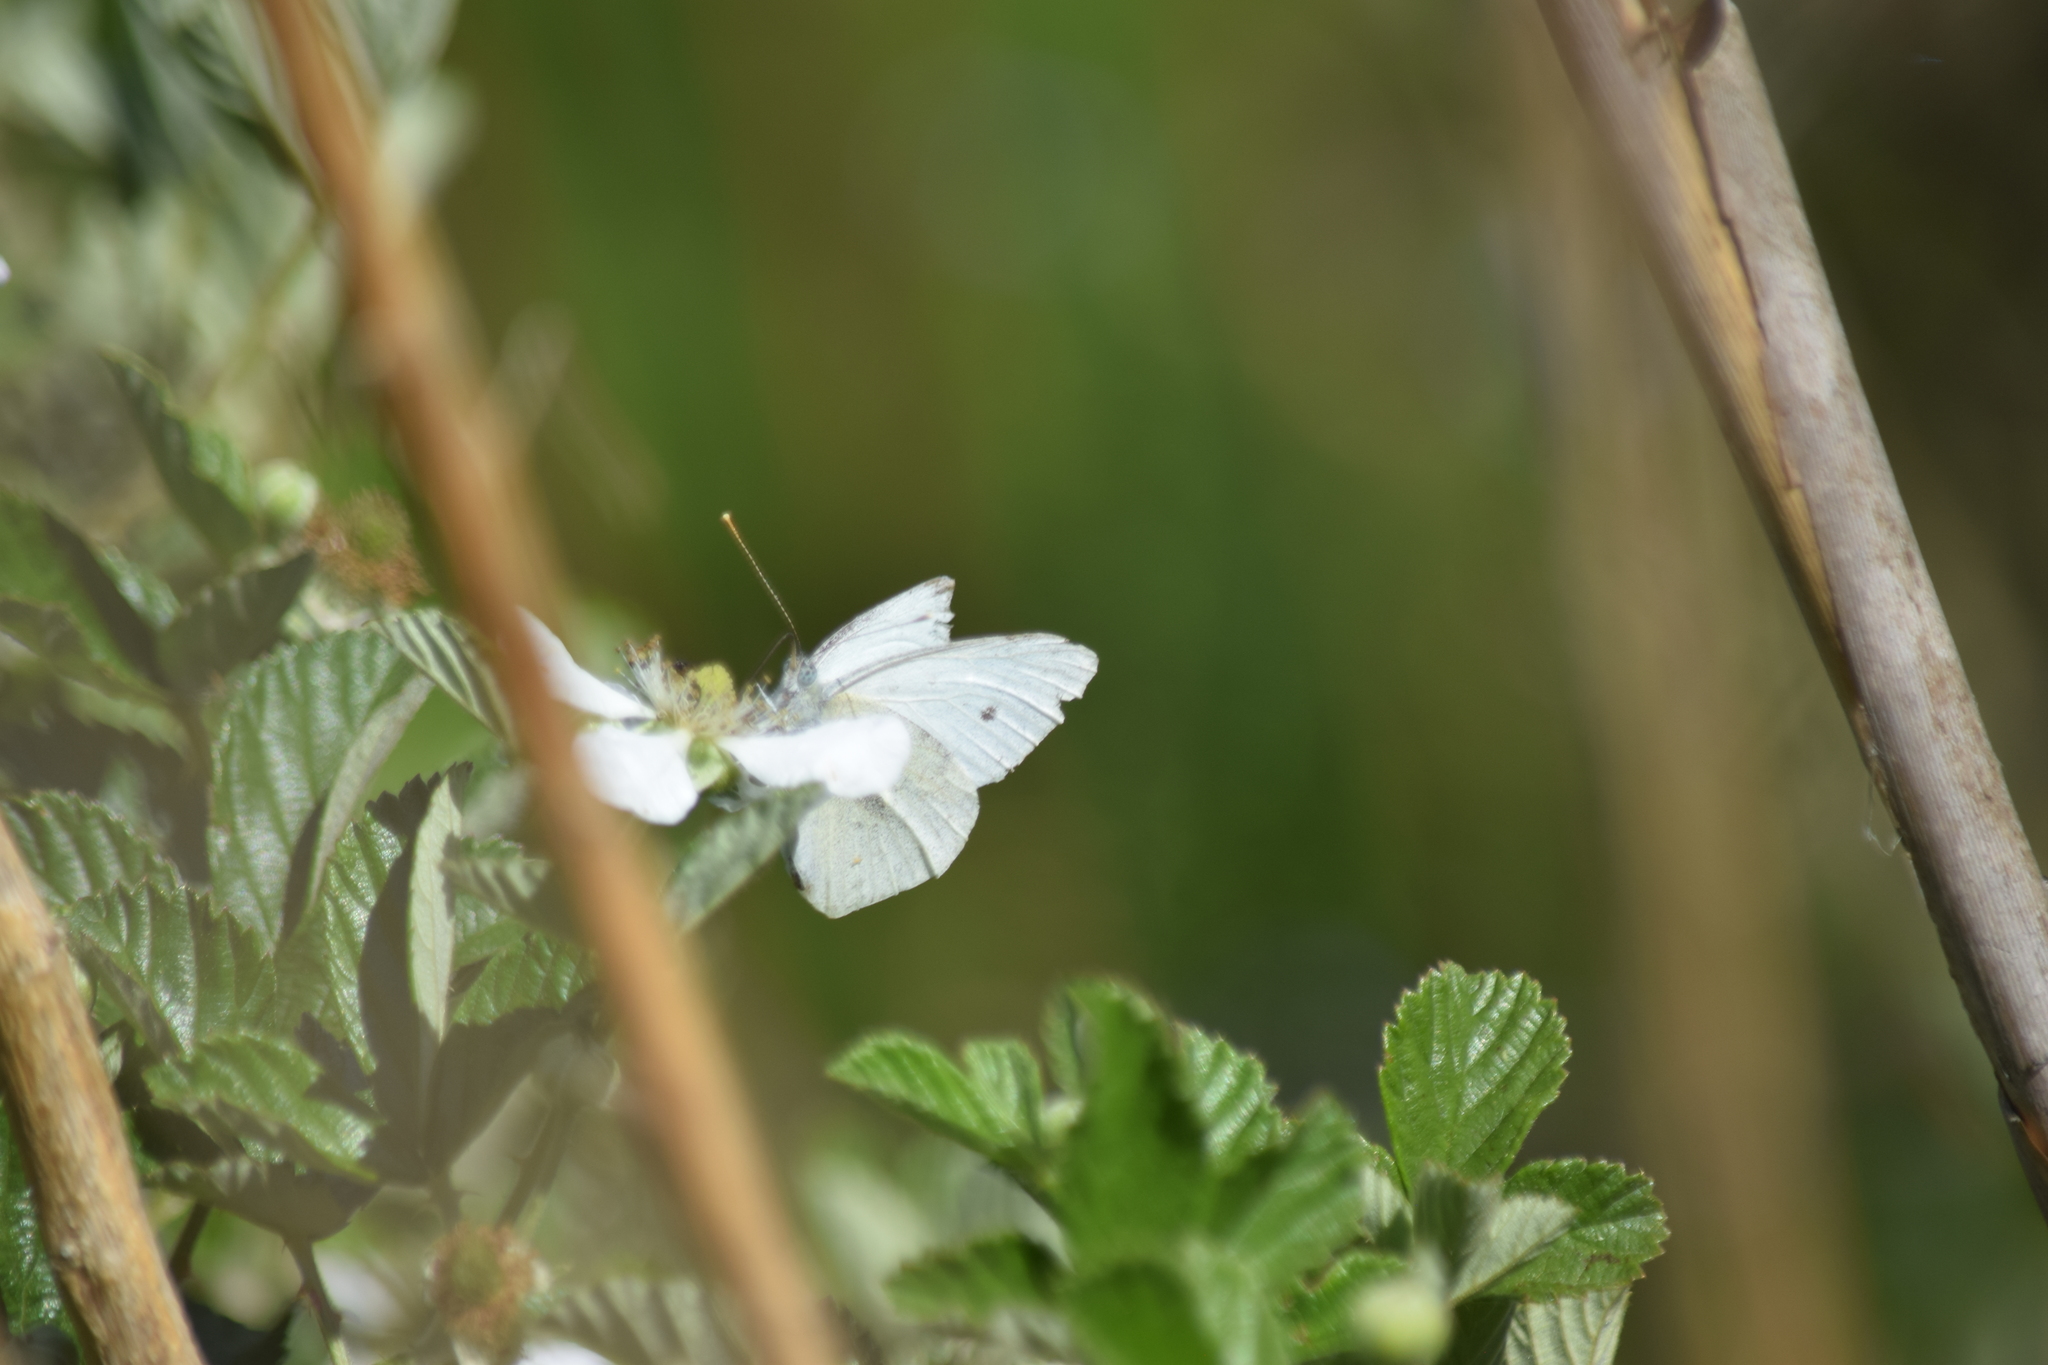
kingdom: Animalia
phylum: Arthropoda
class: Insecta
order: Lepidoptera
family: Pieridae
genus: Pieris
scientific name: Pieris rapae
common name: Small white
